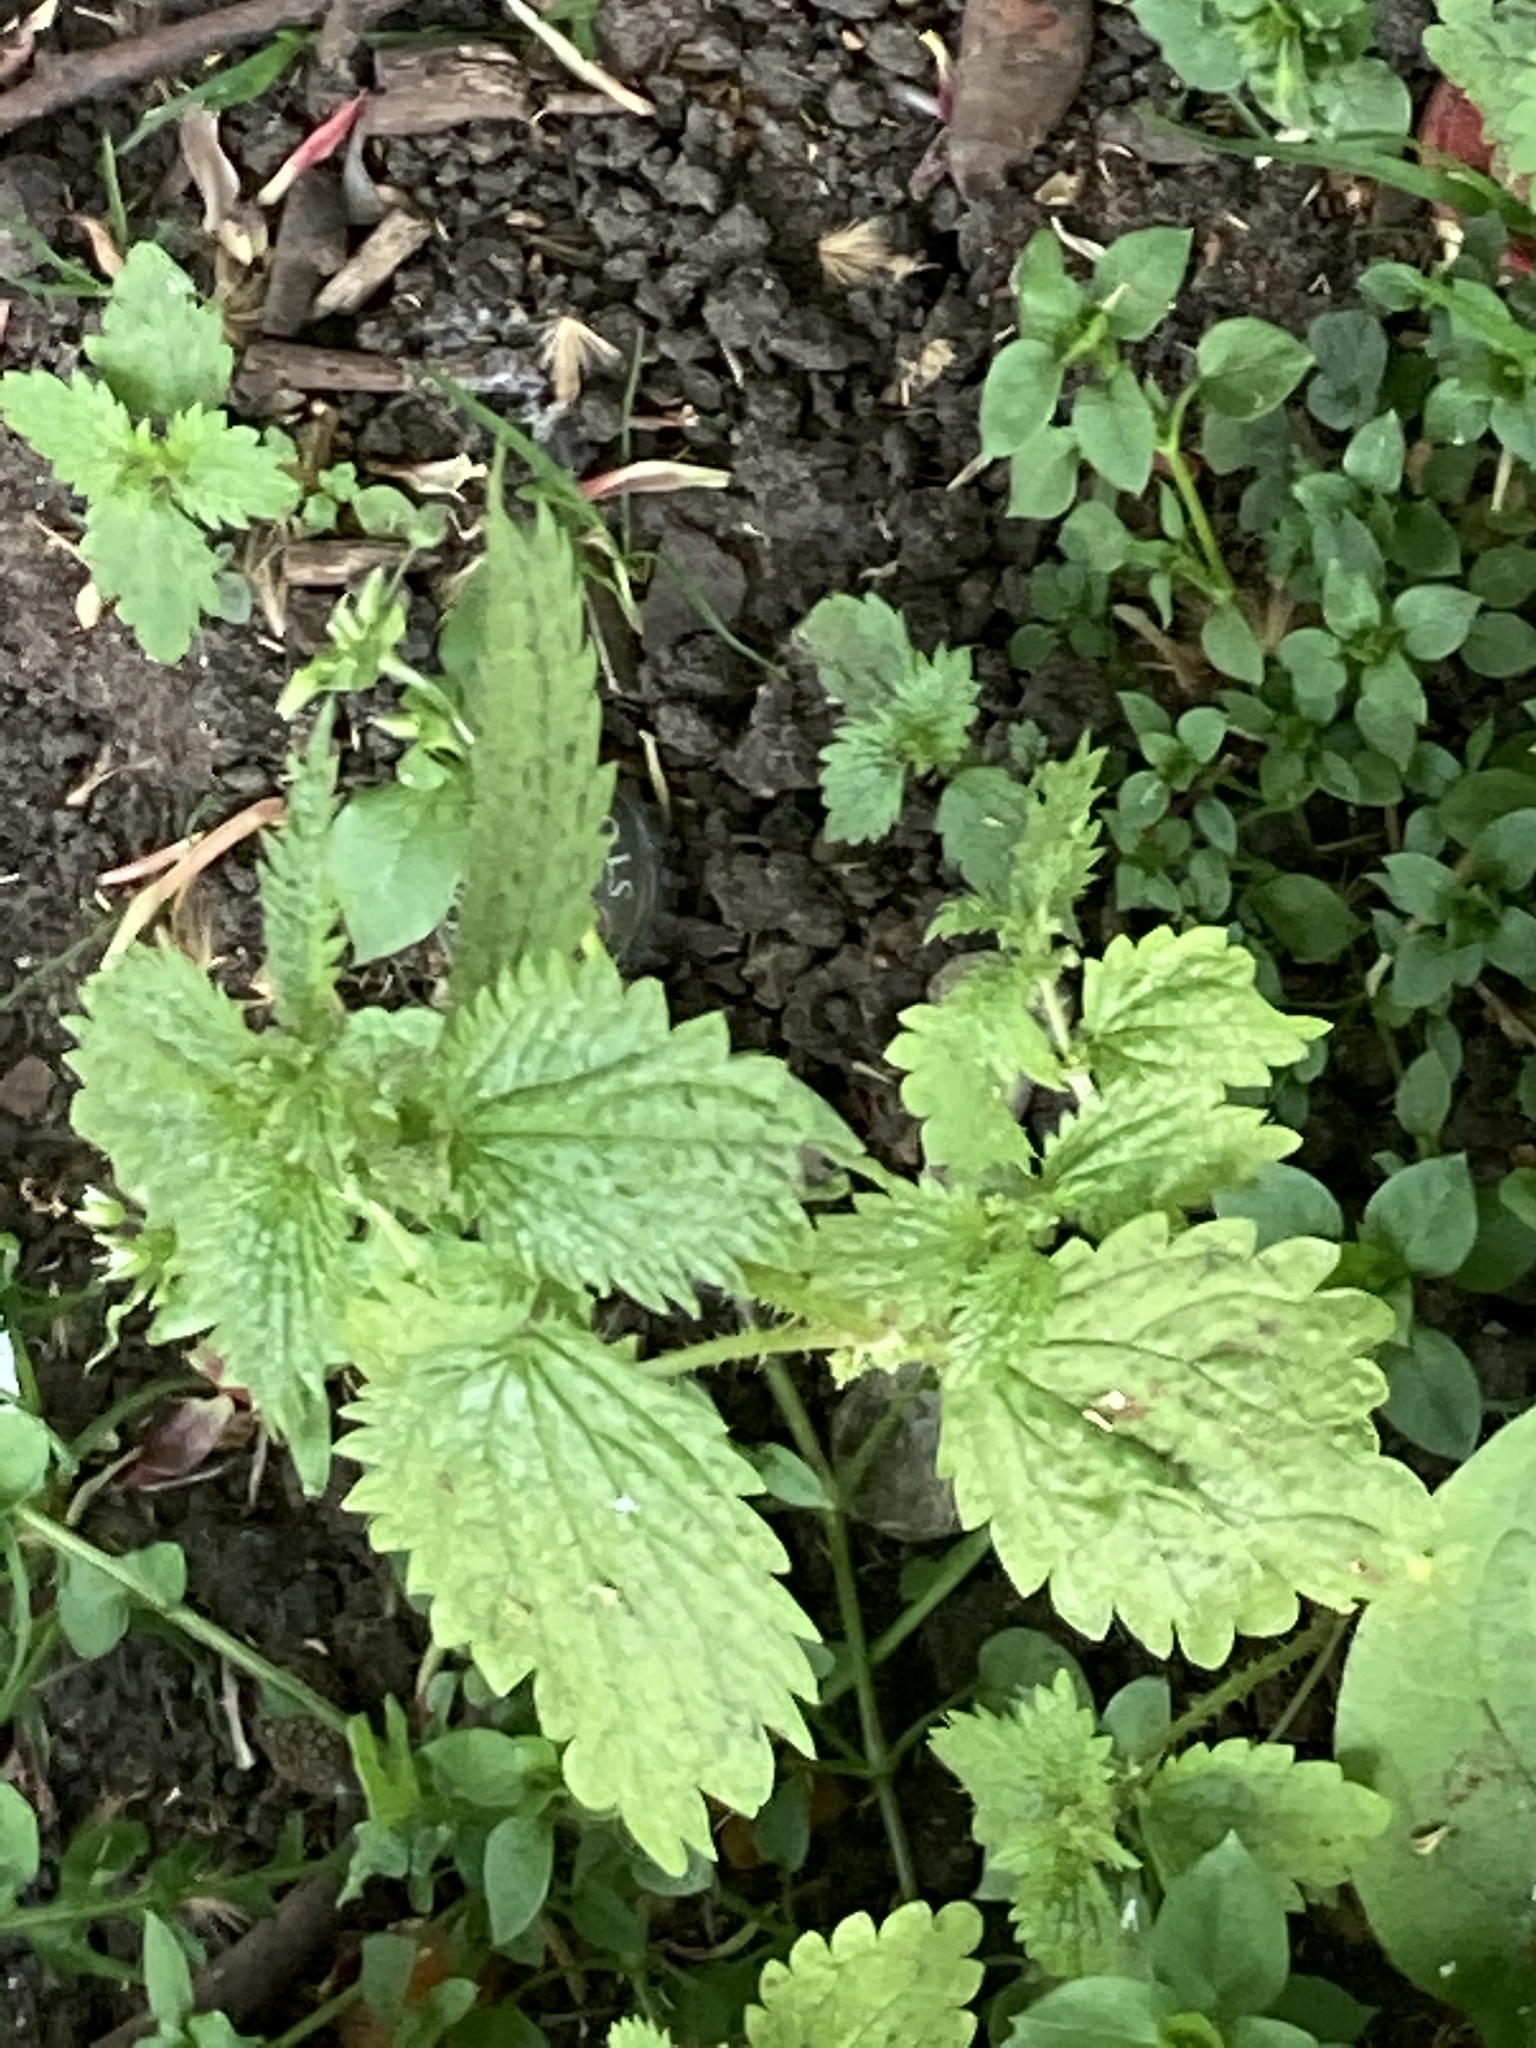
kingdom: Plantae
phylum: Tracheophyta
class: Magnoliopsida
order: Rosales
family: Urticaceae
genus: Urtica
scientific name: Urtica dioica
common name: Common nettle
